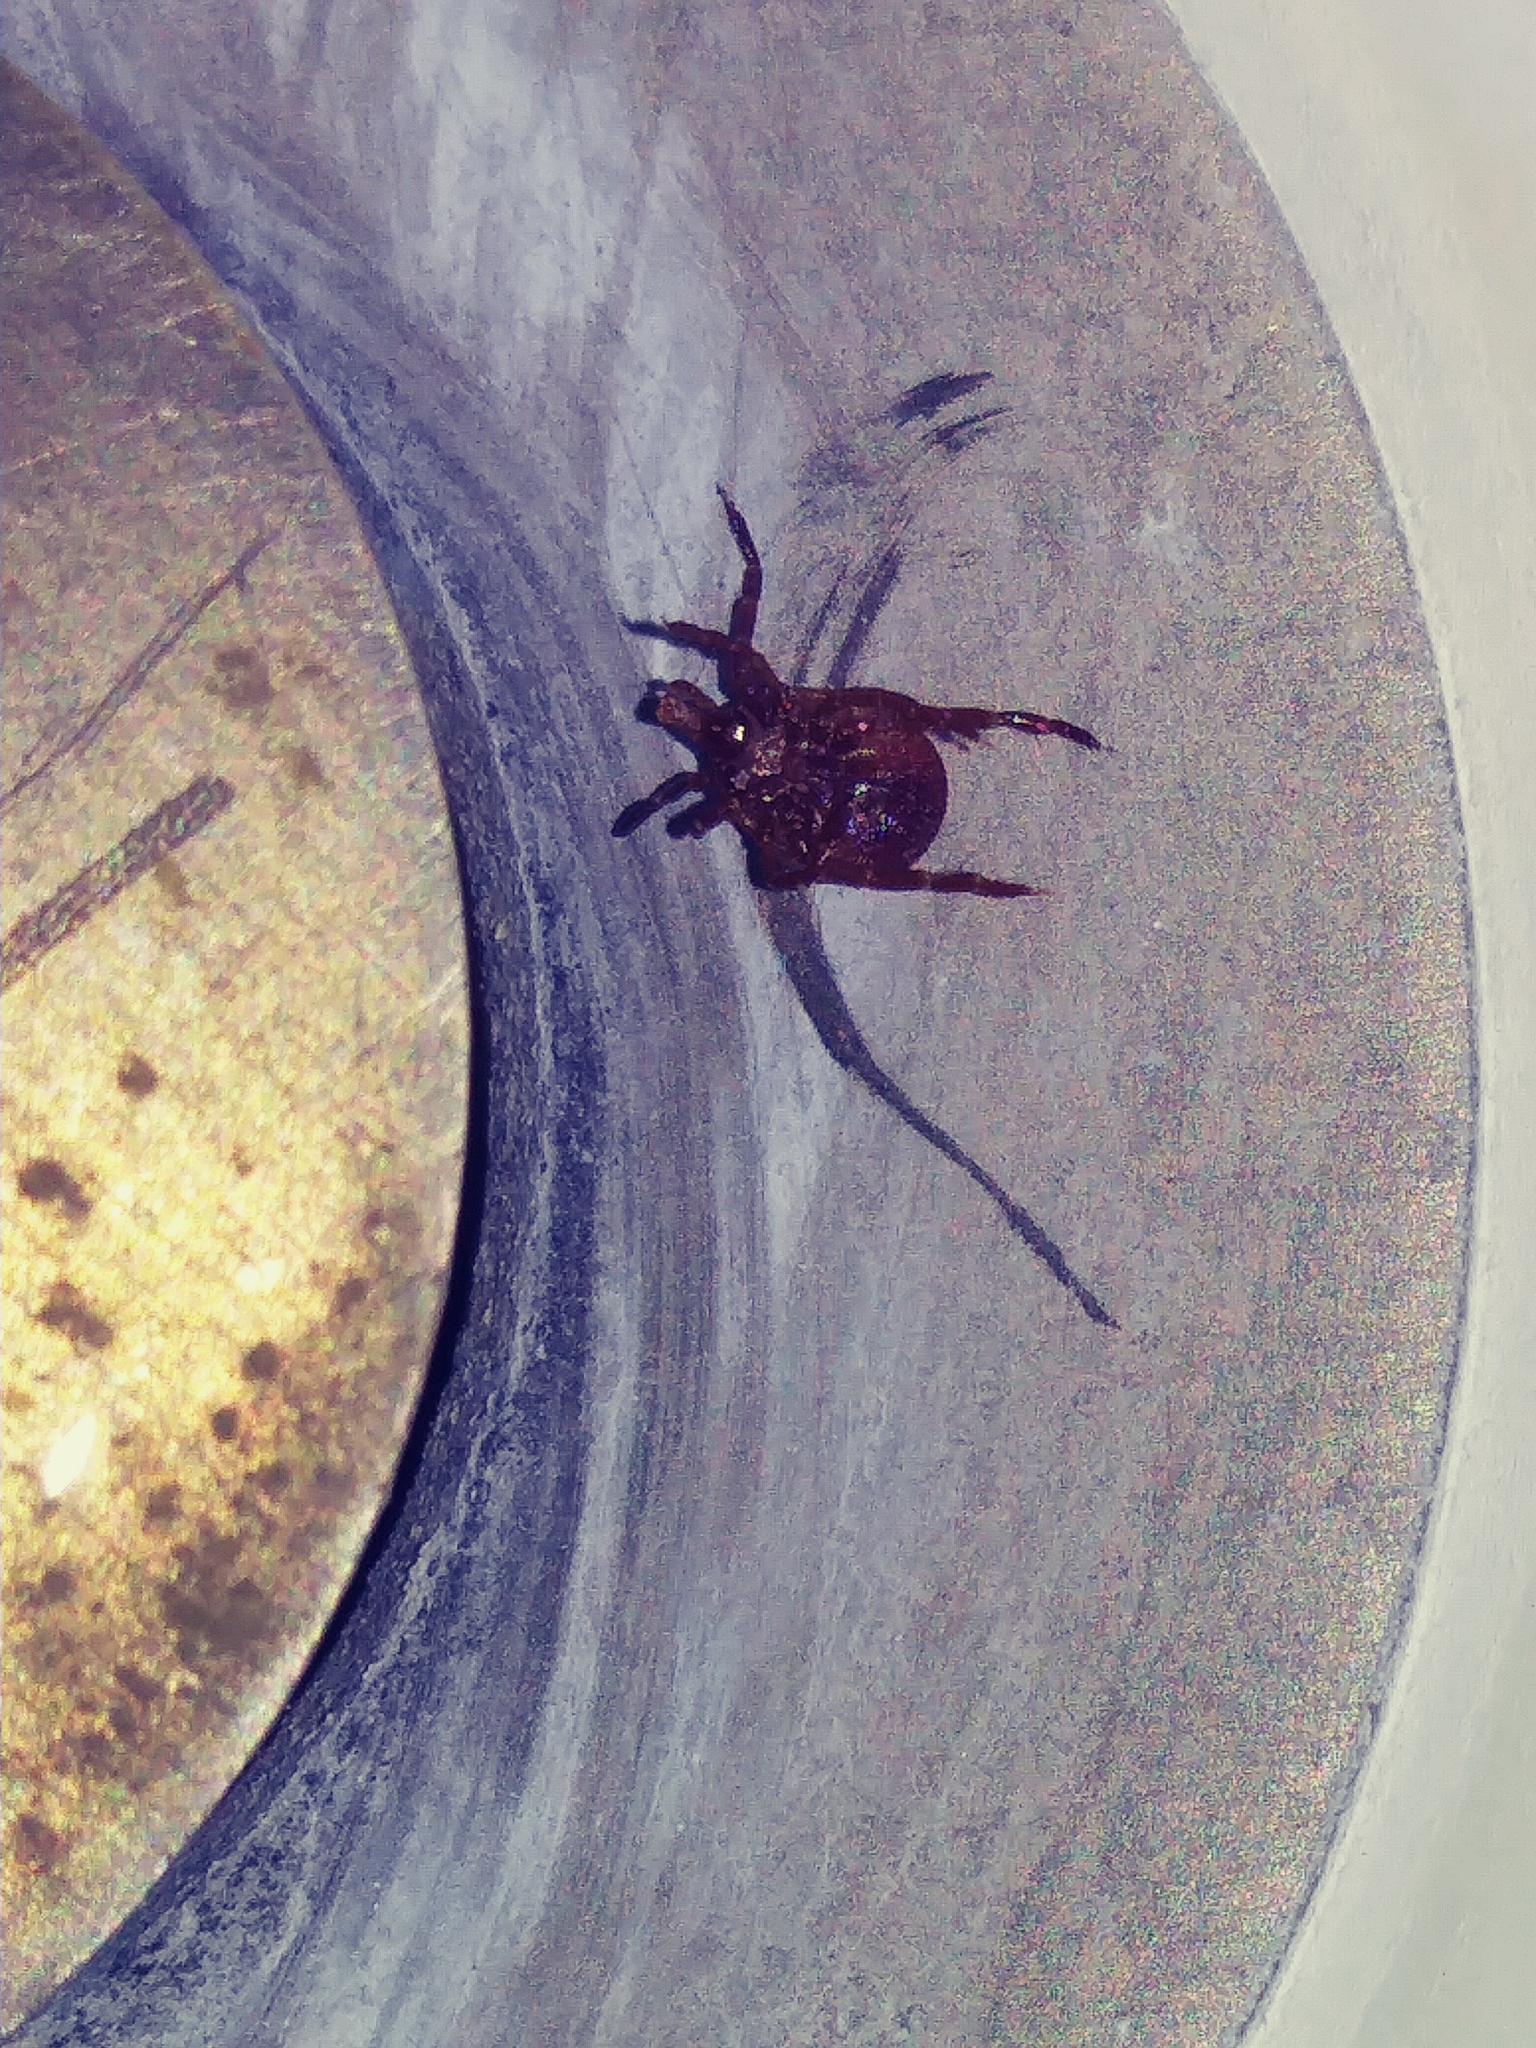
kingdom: Animalia
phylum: Arthropoda
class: Arachnida
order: Ixodida
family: Ixodidae
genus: Amblyomma
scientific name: Amblyomma americanum
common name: Lone star tick
